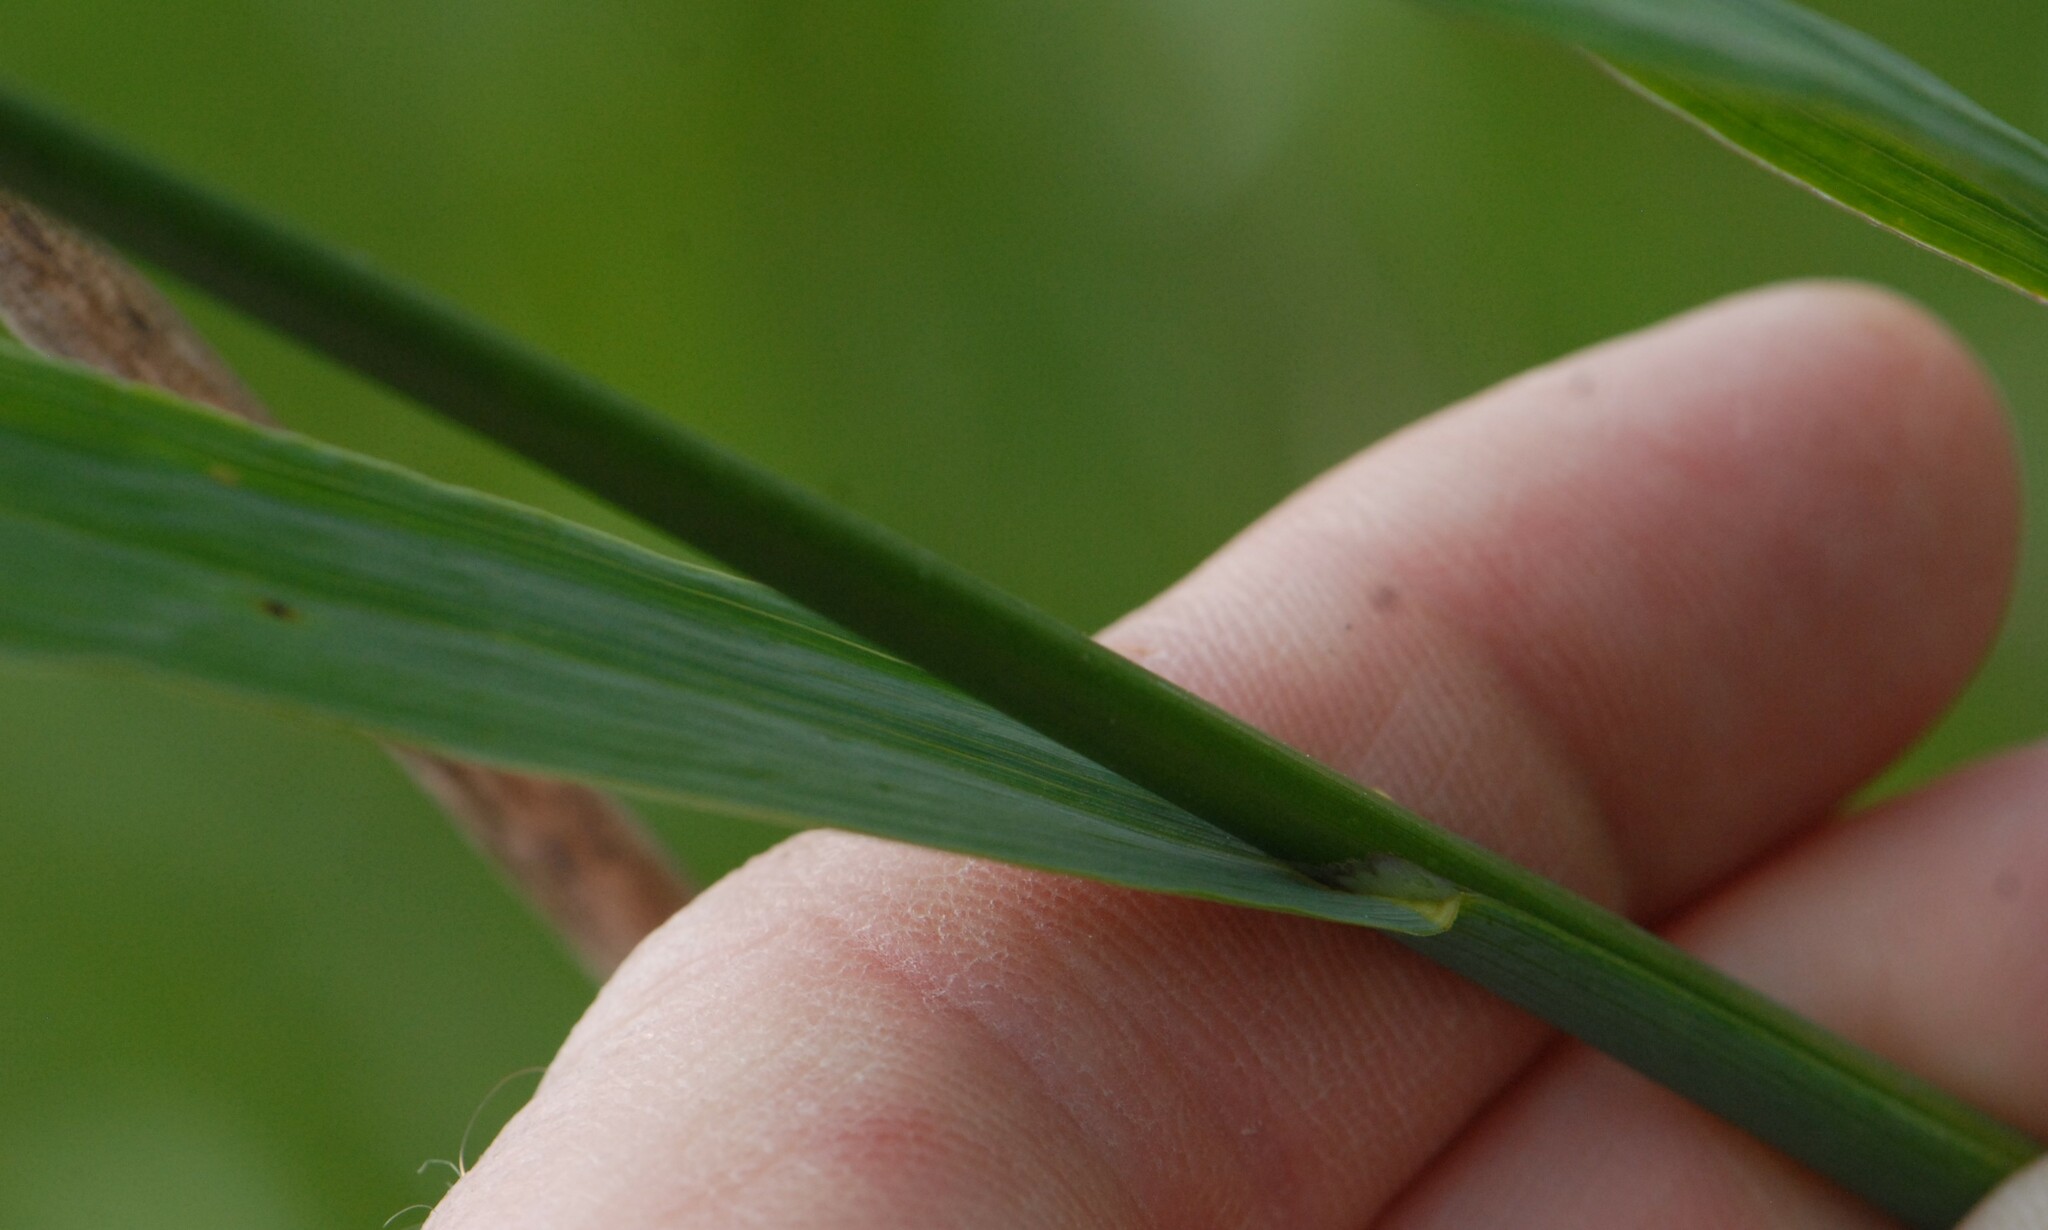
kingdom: Plantae
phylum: Tracheophyta
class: Liliopsida
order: Poales
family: Poaceae
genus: Bromus
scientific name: Bromus inermis
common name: Smooth brome
